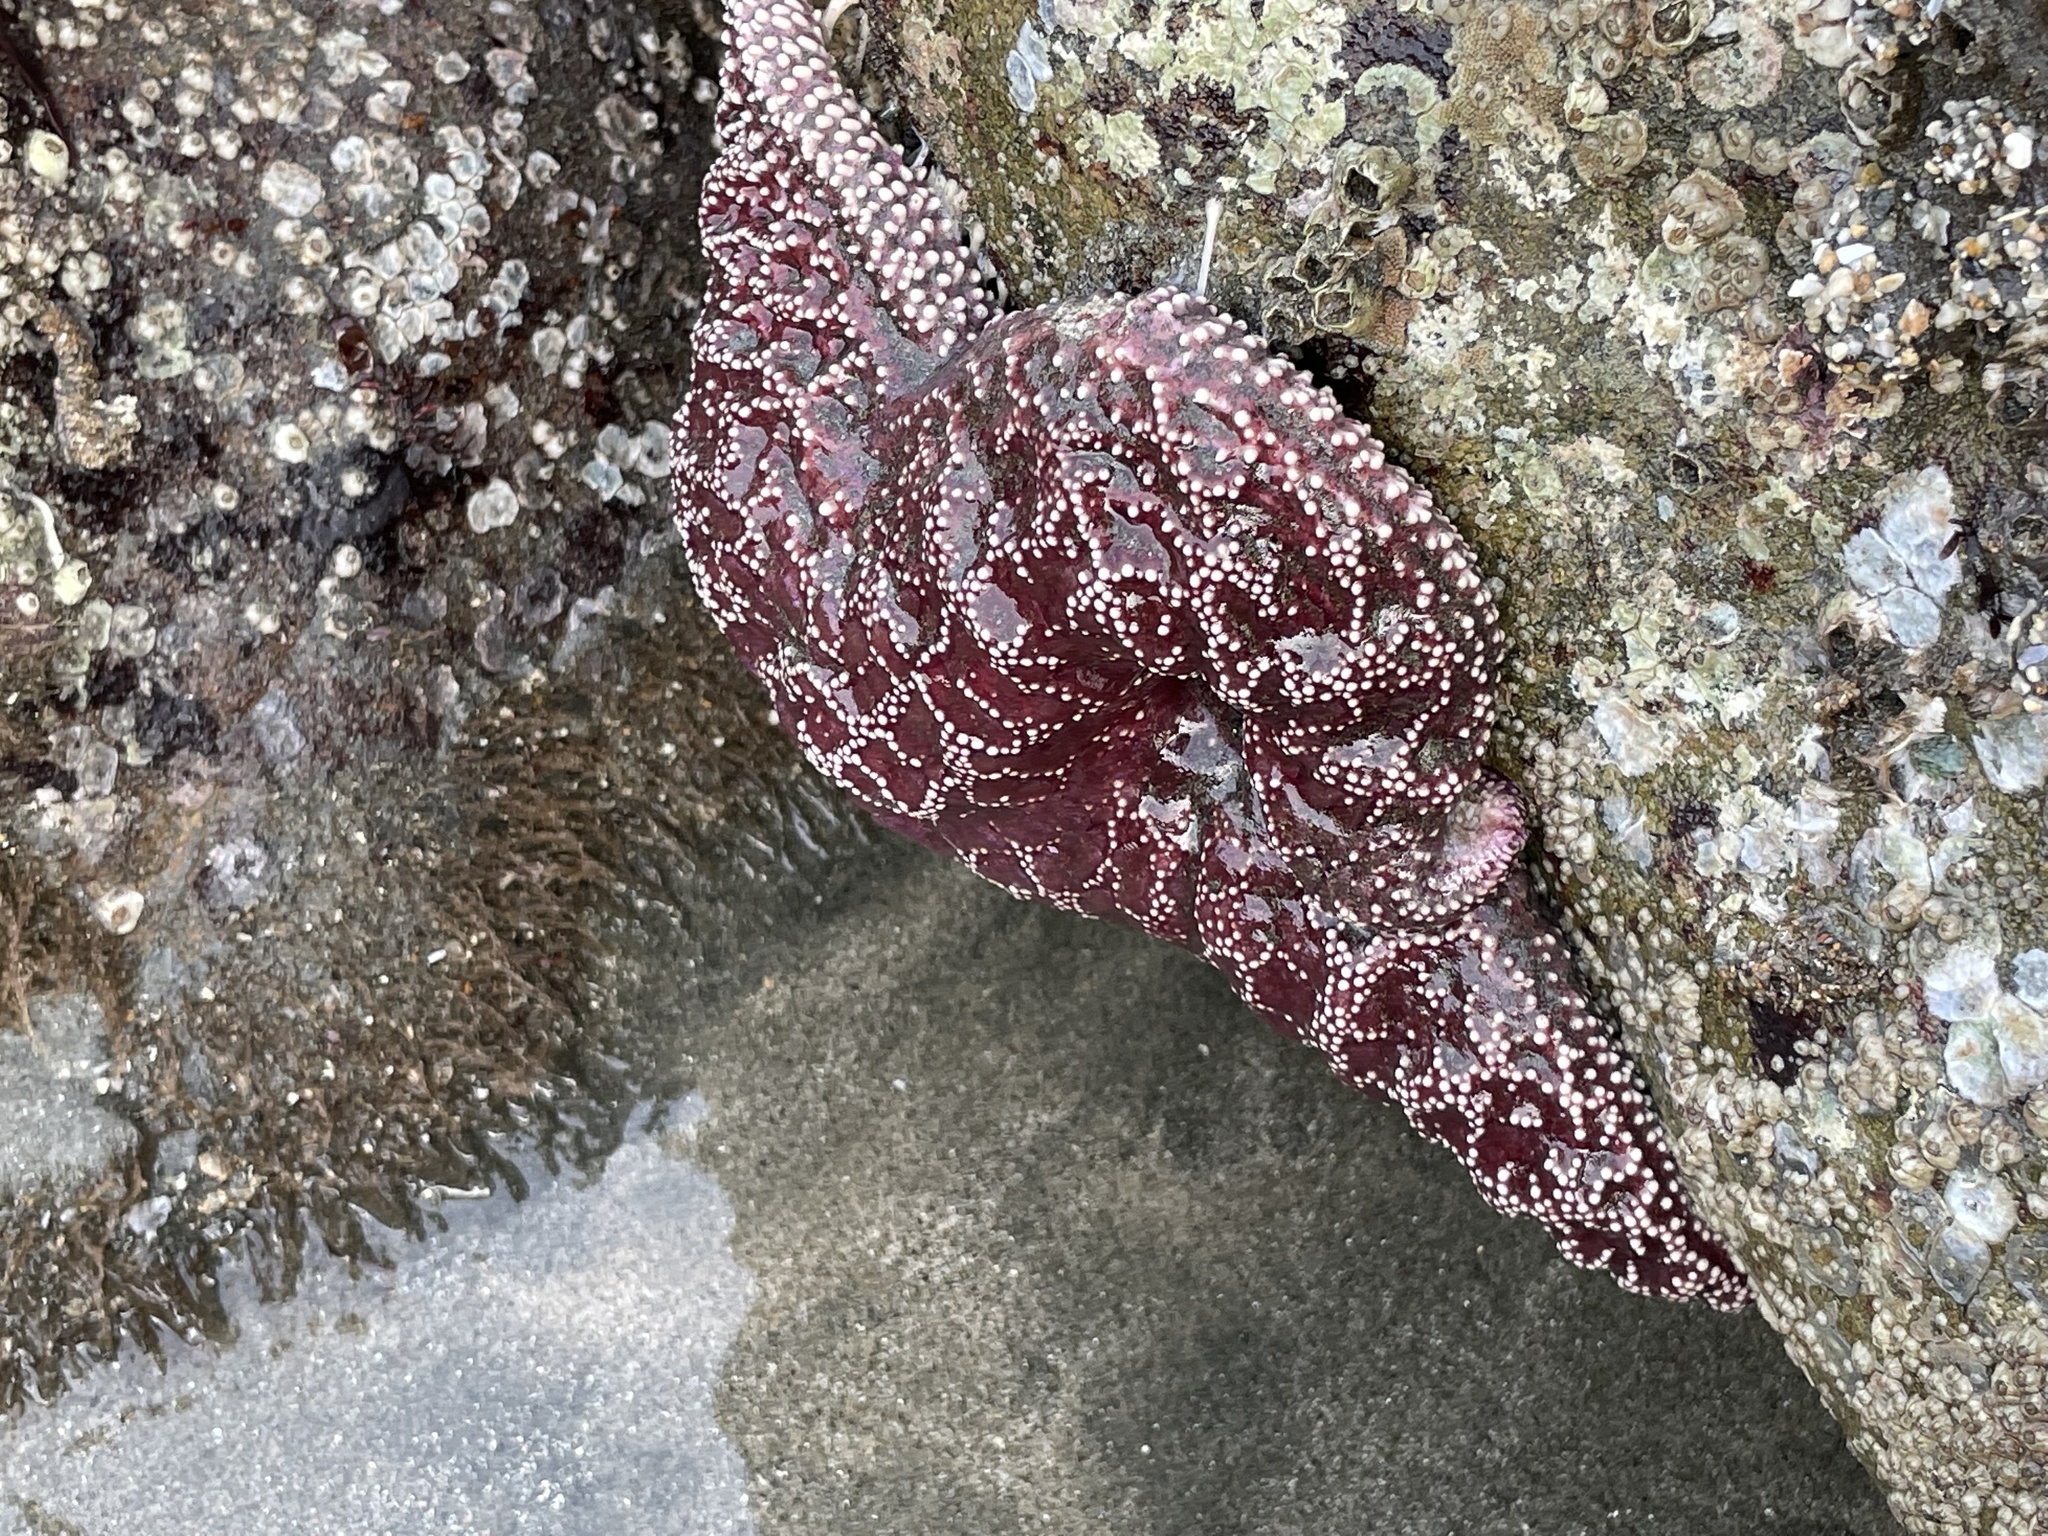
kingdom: Animalia
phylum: Echinodermata
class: Asteroidea
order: Forcipulatida
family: Asteriidae
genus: Pisaster
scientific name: Pisaster ochraceus
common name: Ochre stars
